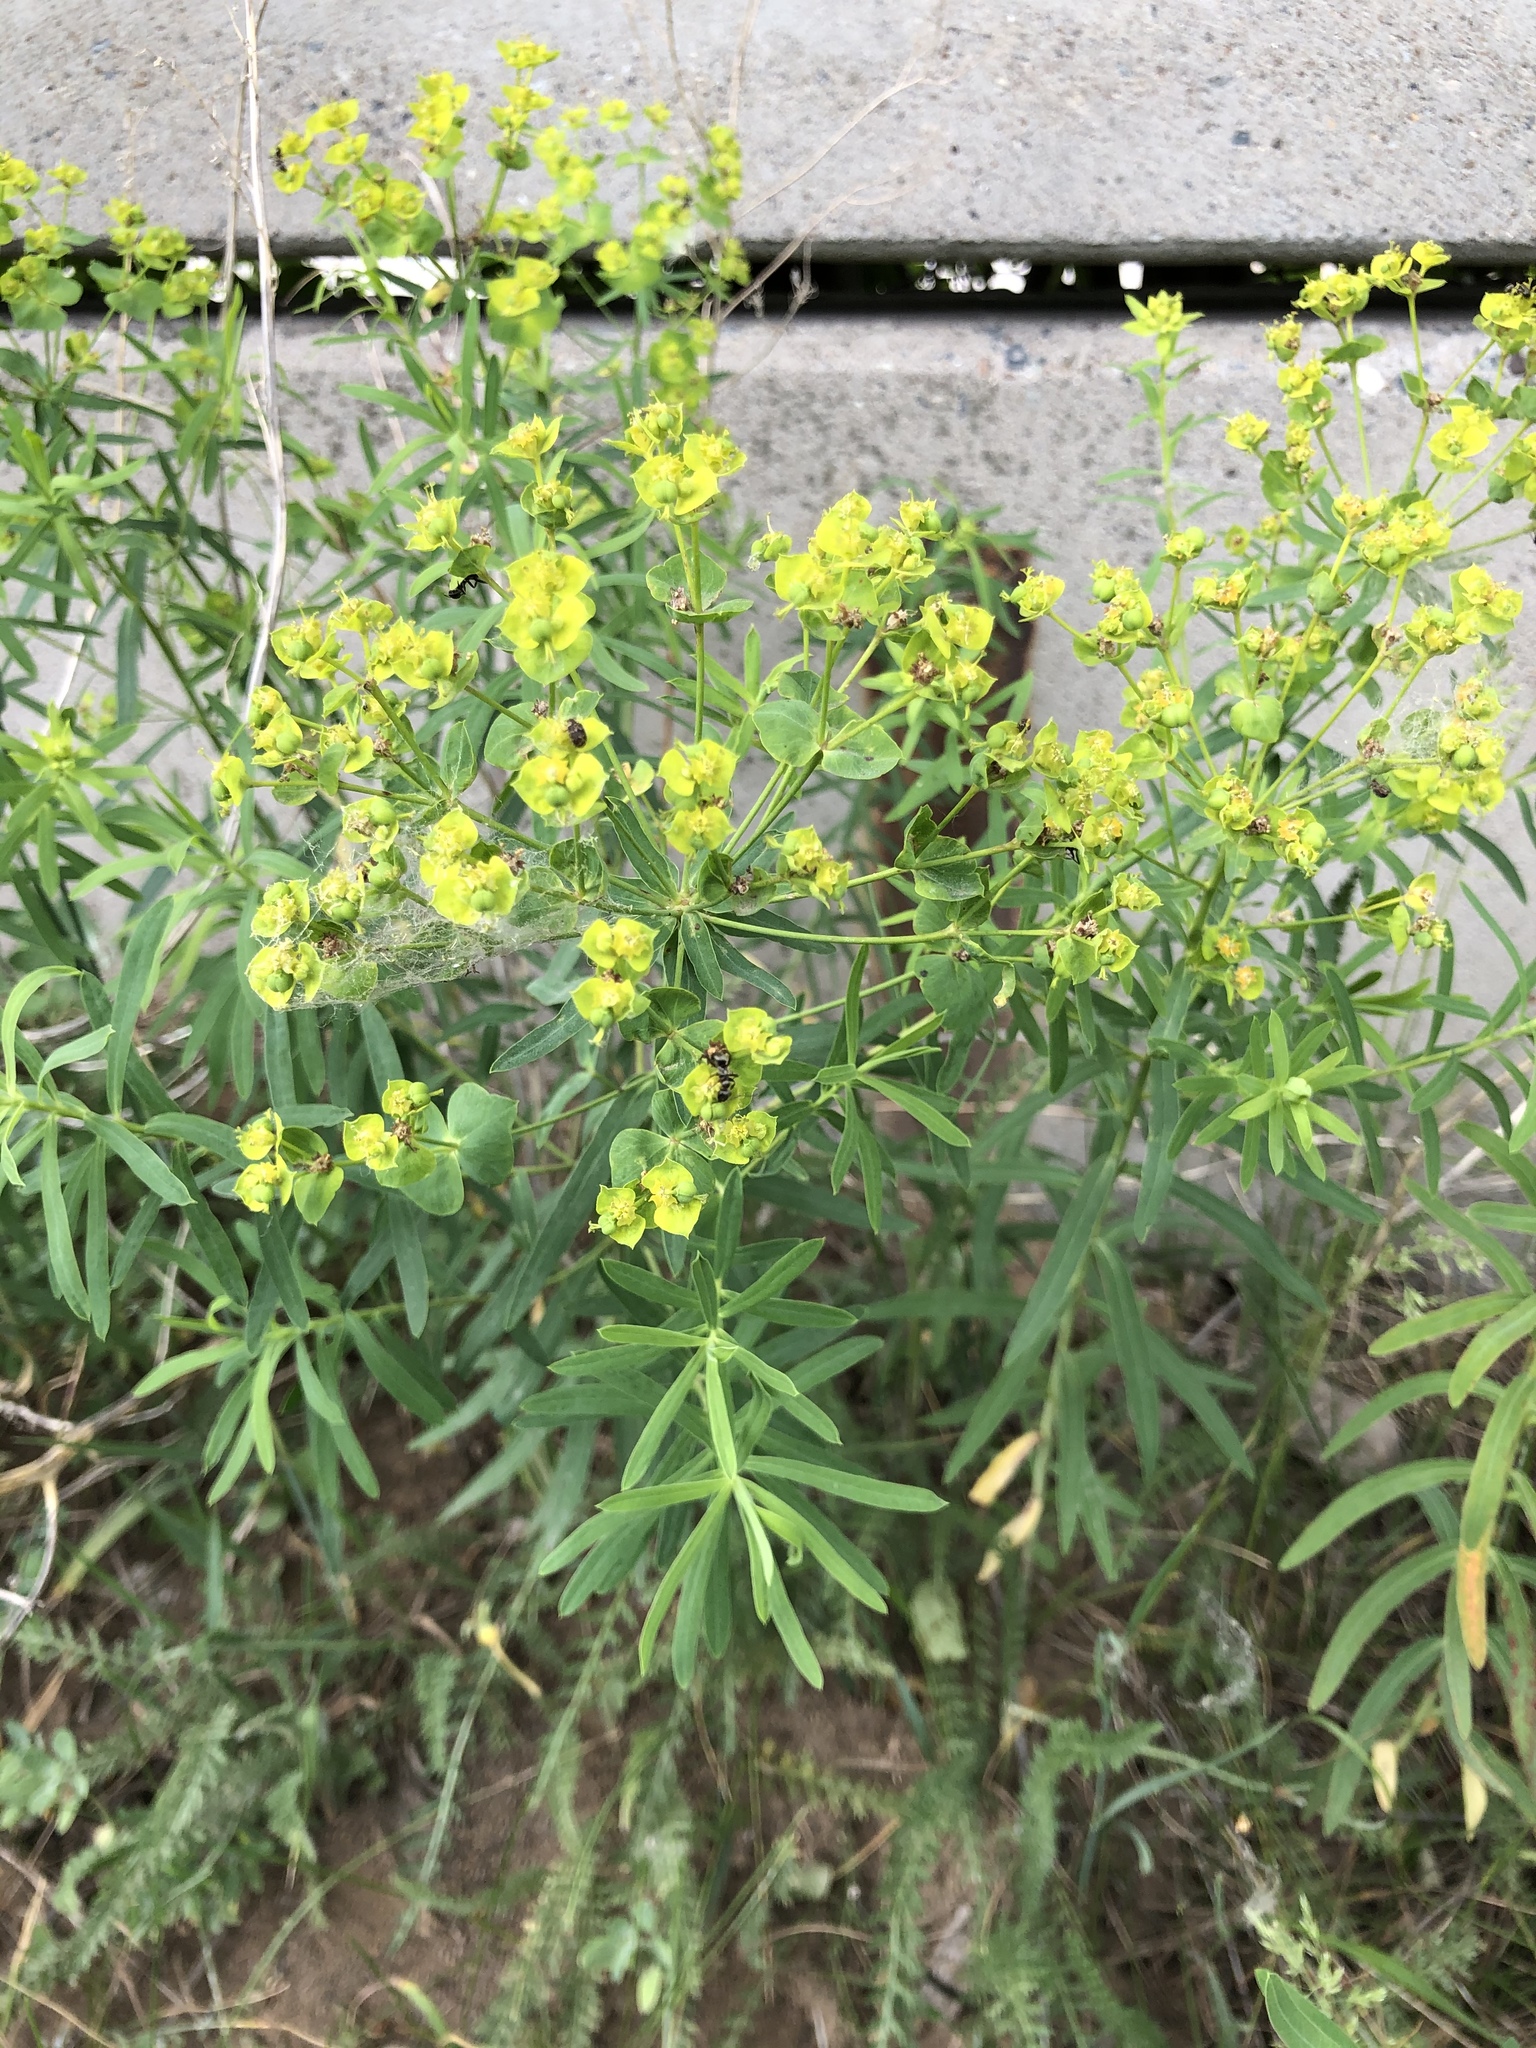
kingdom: Plantae
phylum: Tracheophyta
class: Magnoliopsida
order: Malpighiales
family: Euphorbiaceae
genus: Euphorbia
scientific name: Euphorbia virgata
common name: Leafy spurge
